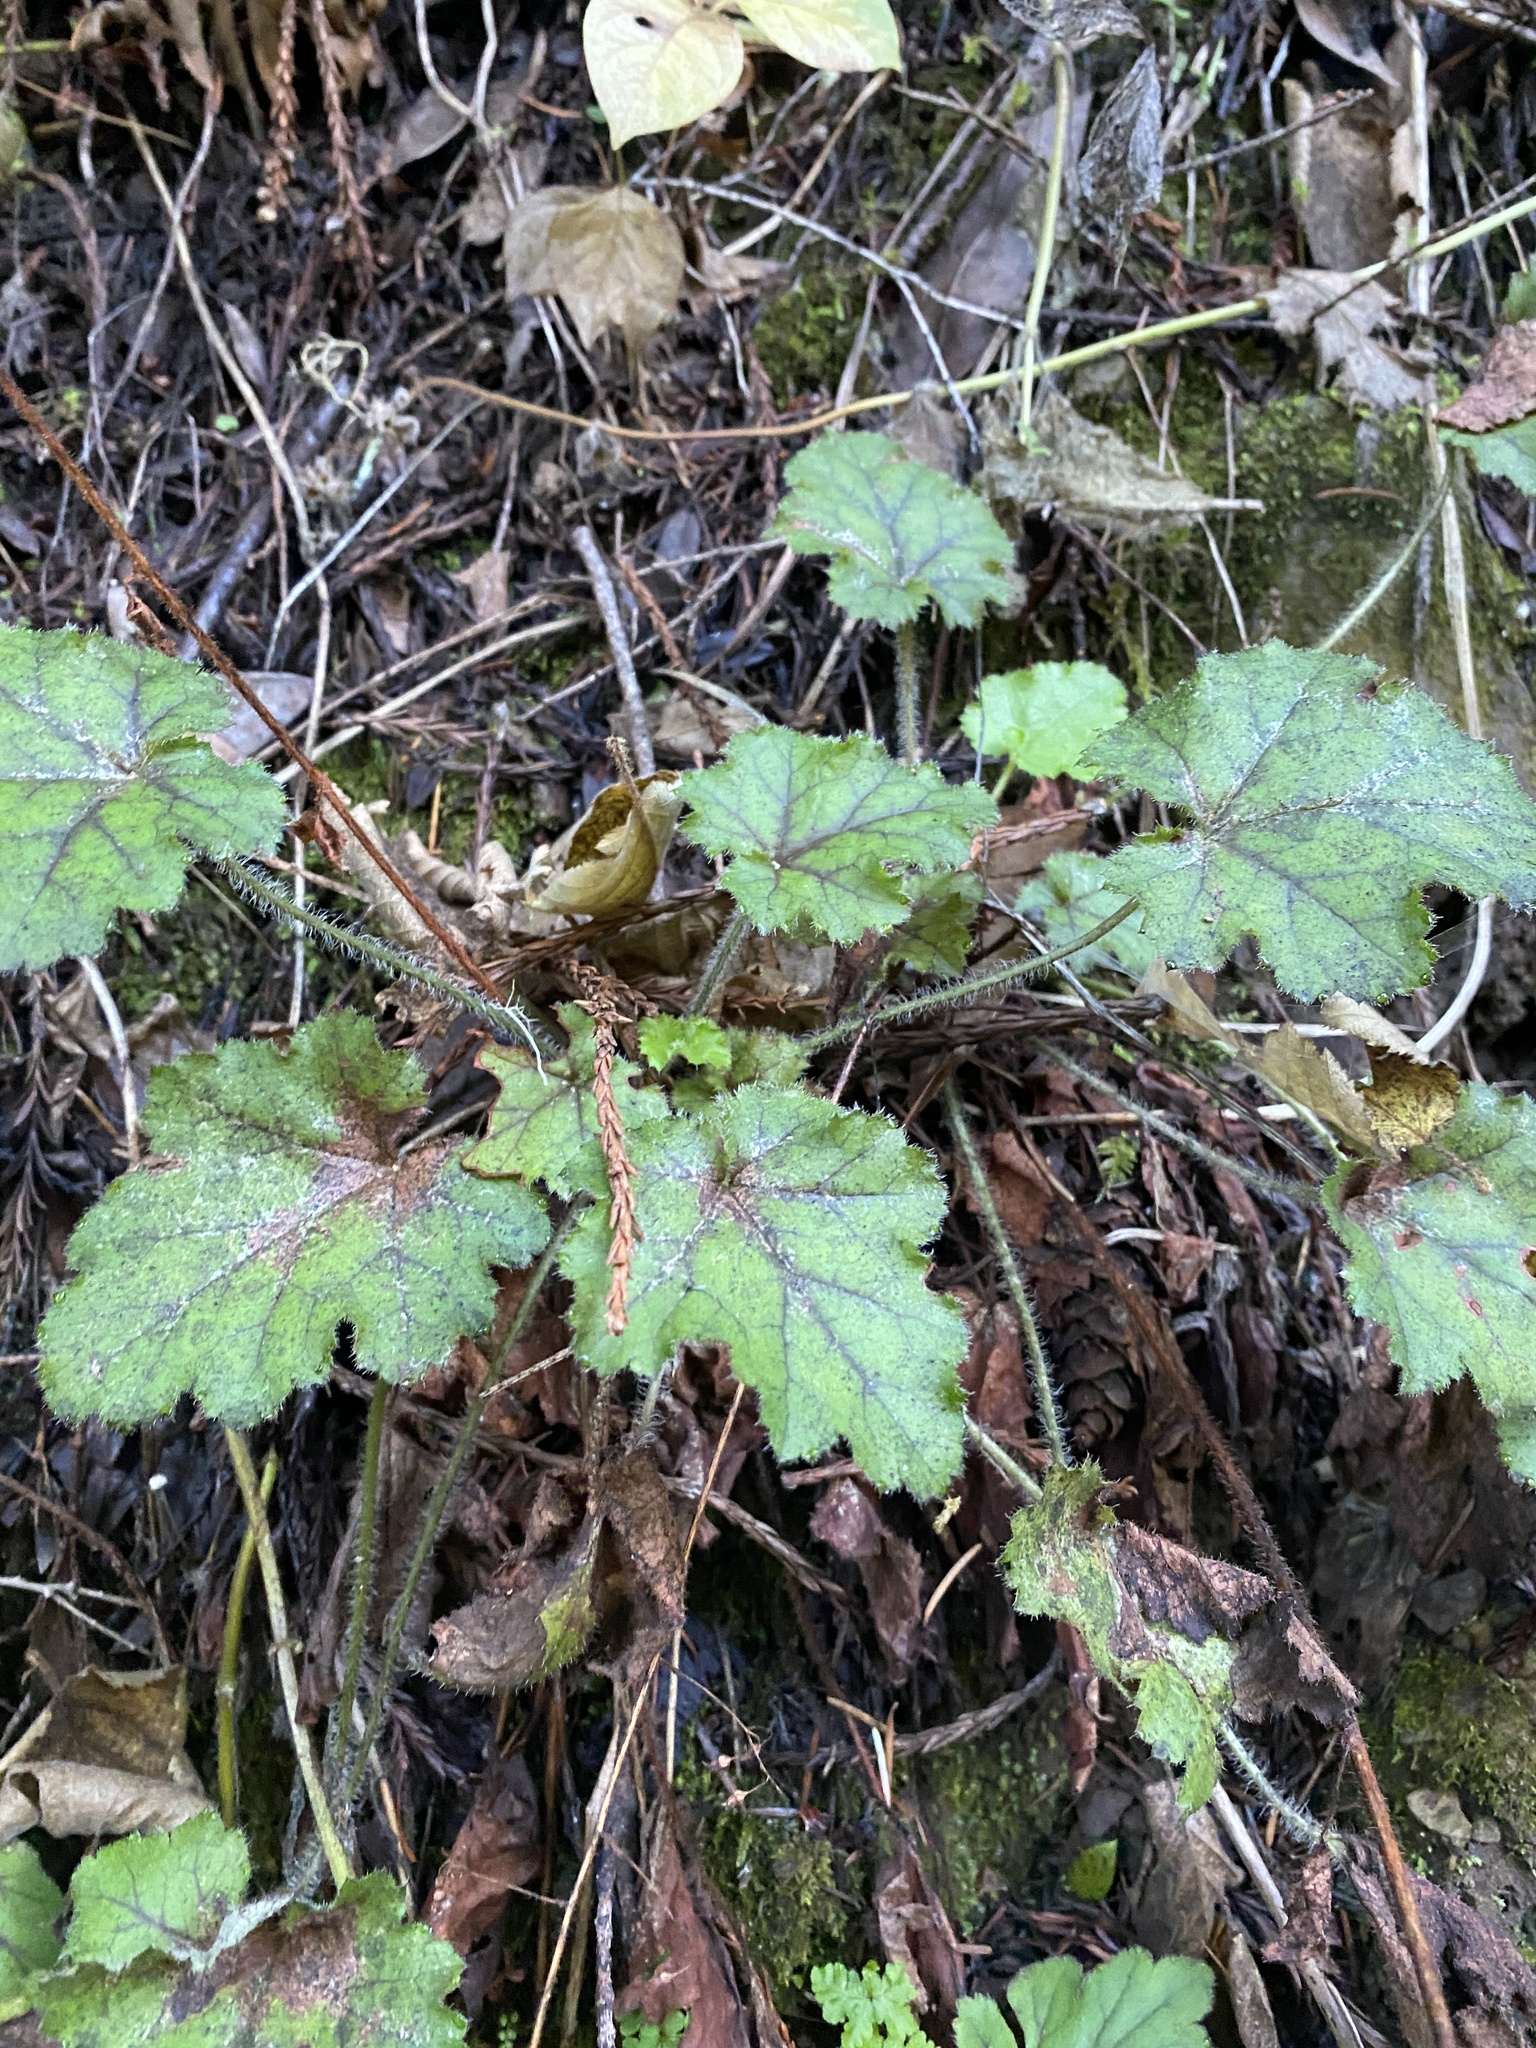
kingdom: Plantae
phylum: Tracheophyta
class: Magnoliopsida
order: Saxifragales
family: Saxifragaceae
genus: Heuchera
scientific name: Heuchera micrantha
